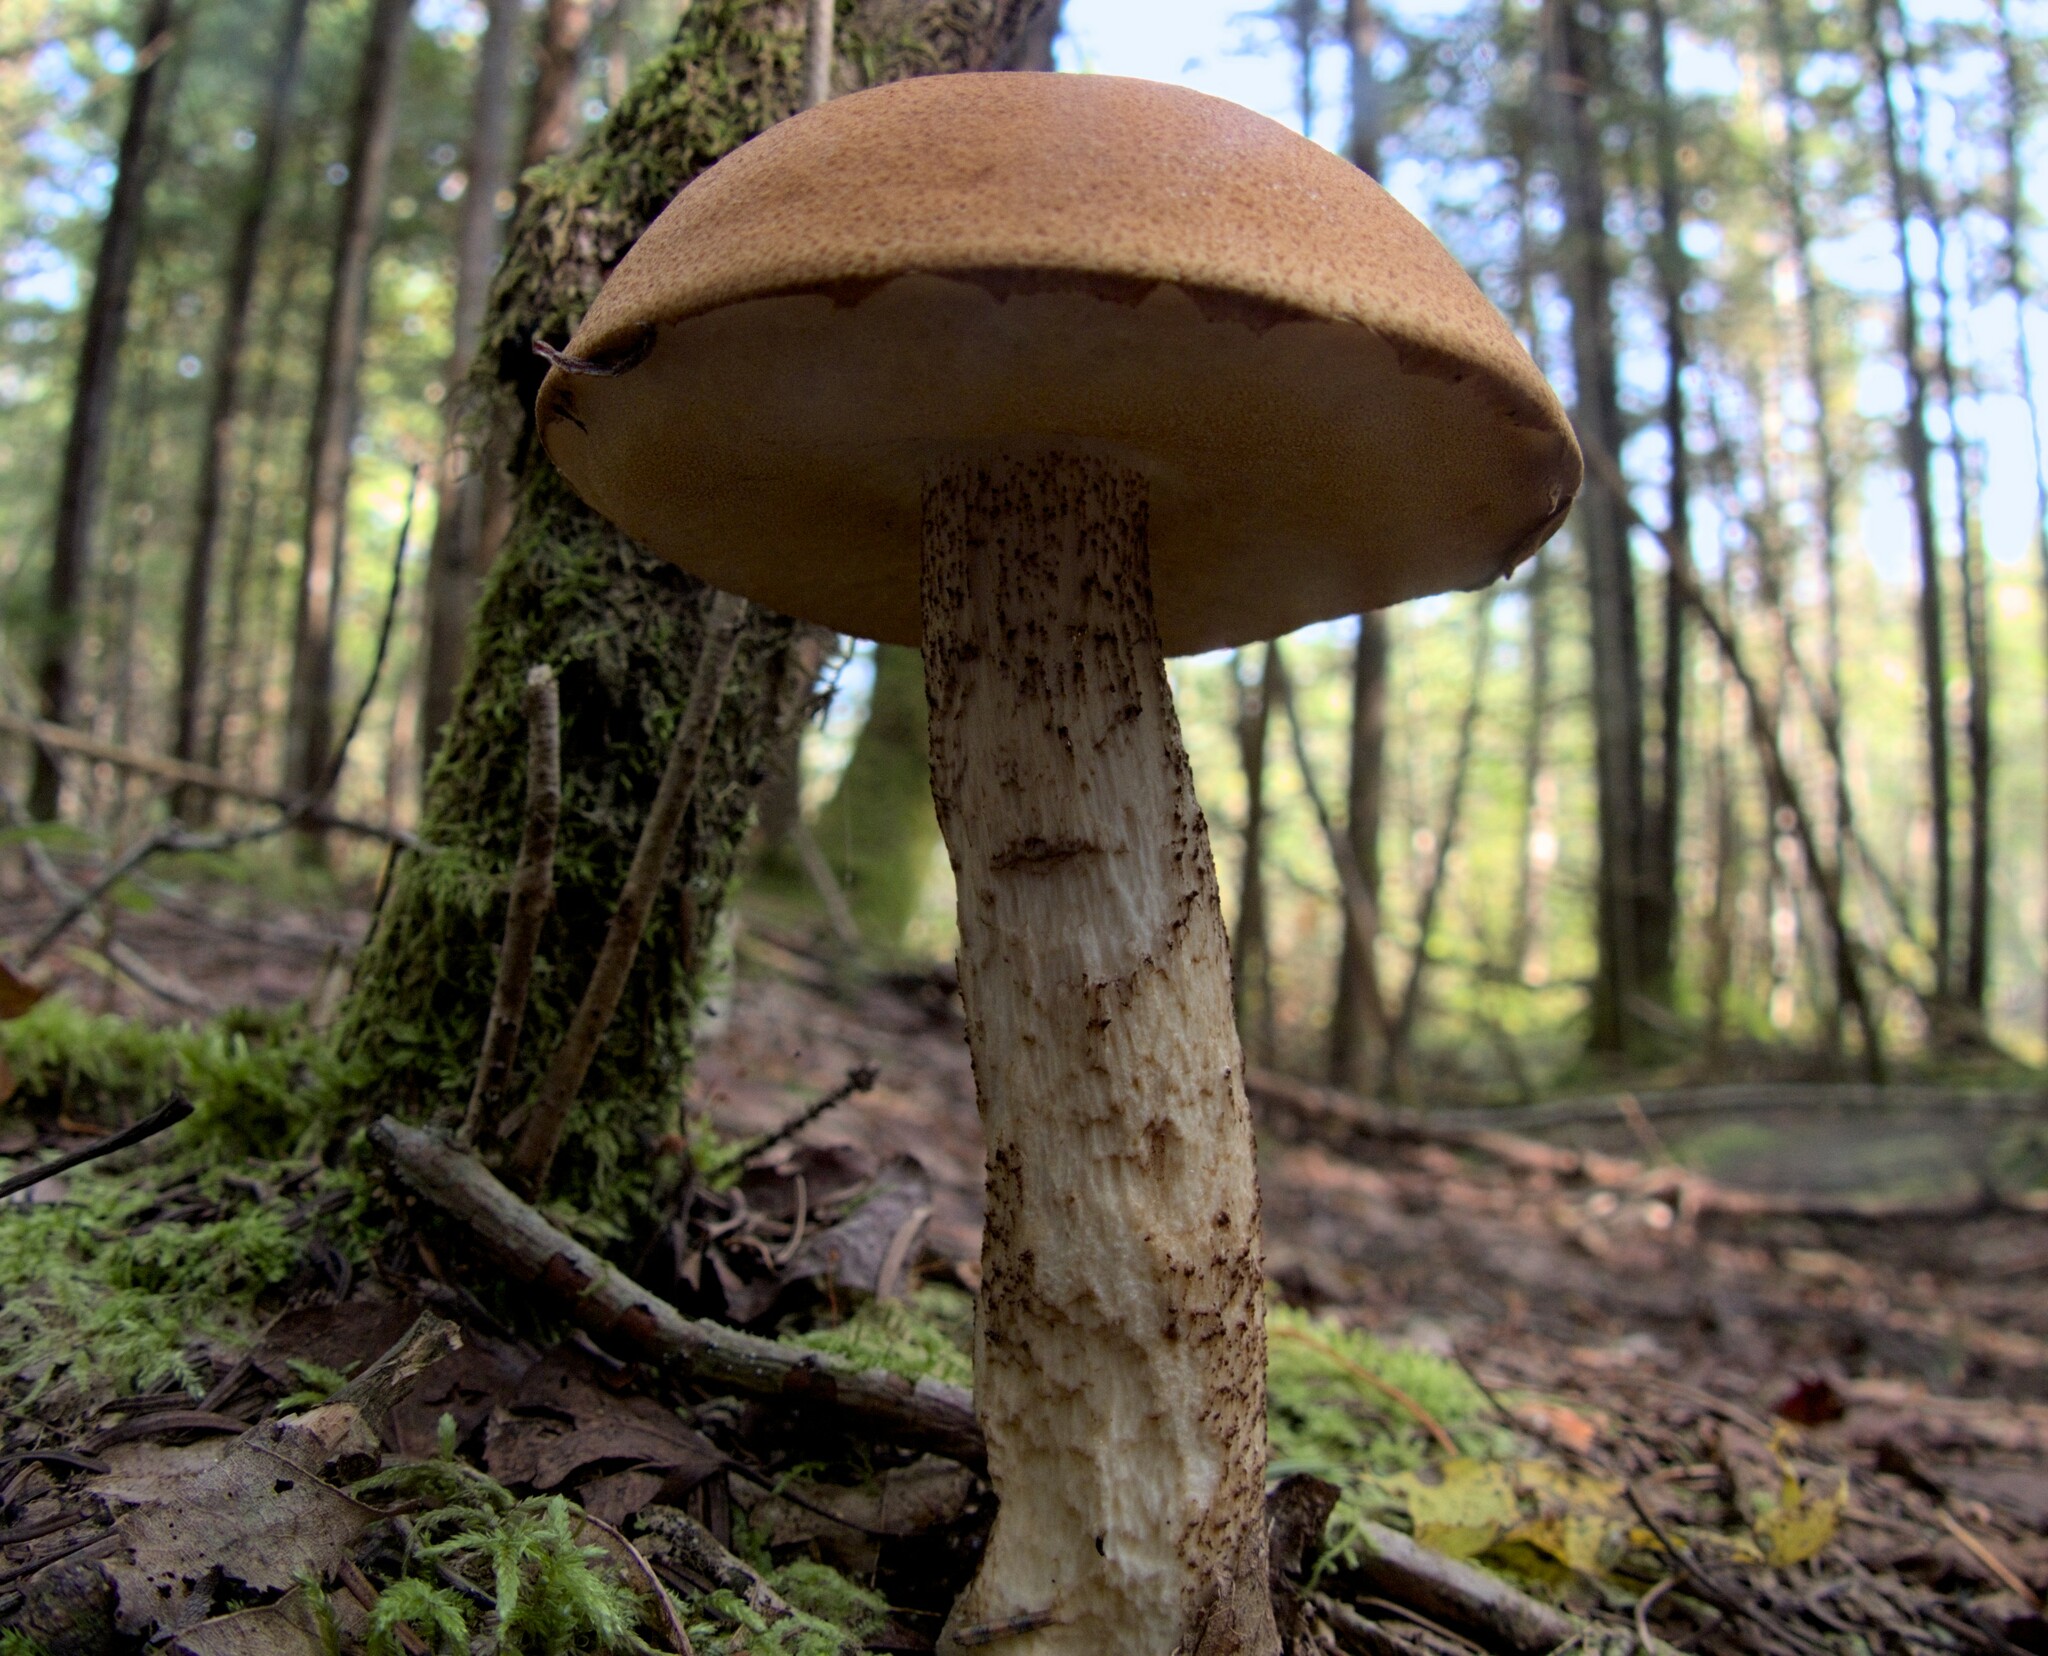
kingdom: Fungi
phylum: Basidiomycota
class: Agaricomycetes
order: Boletales
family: Boletaceae
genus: Leccinum
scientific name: Leccinum aurantiacum
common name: Orange bolete
